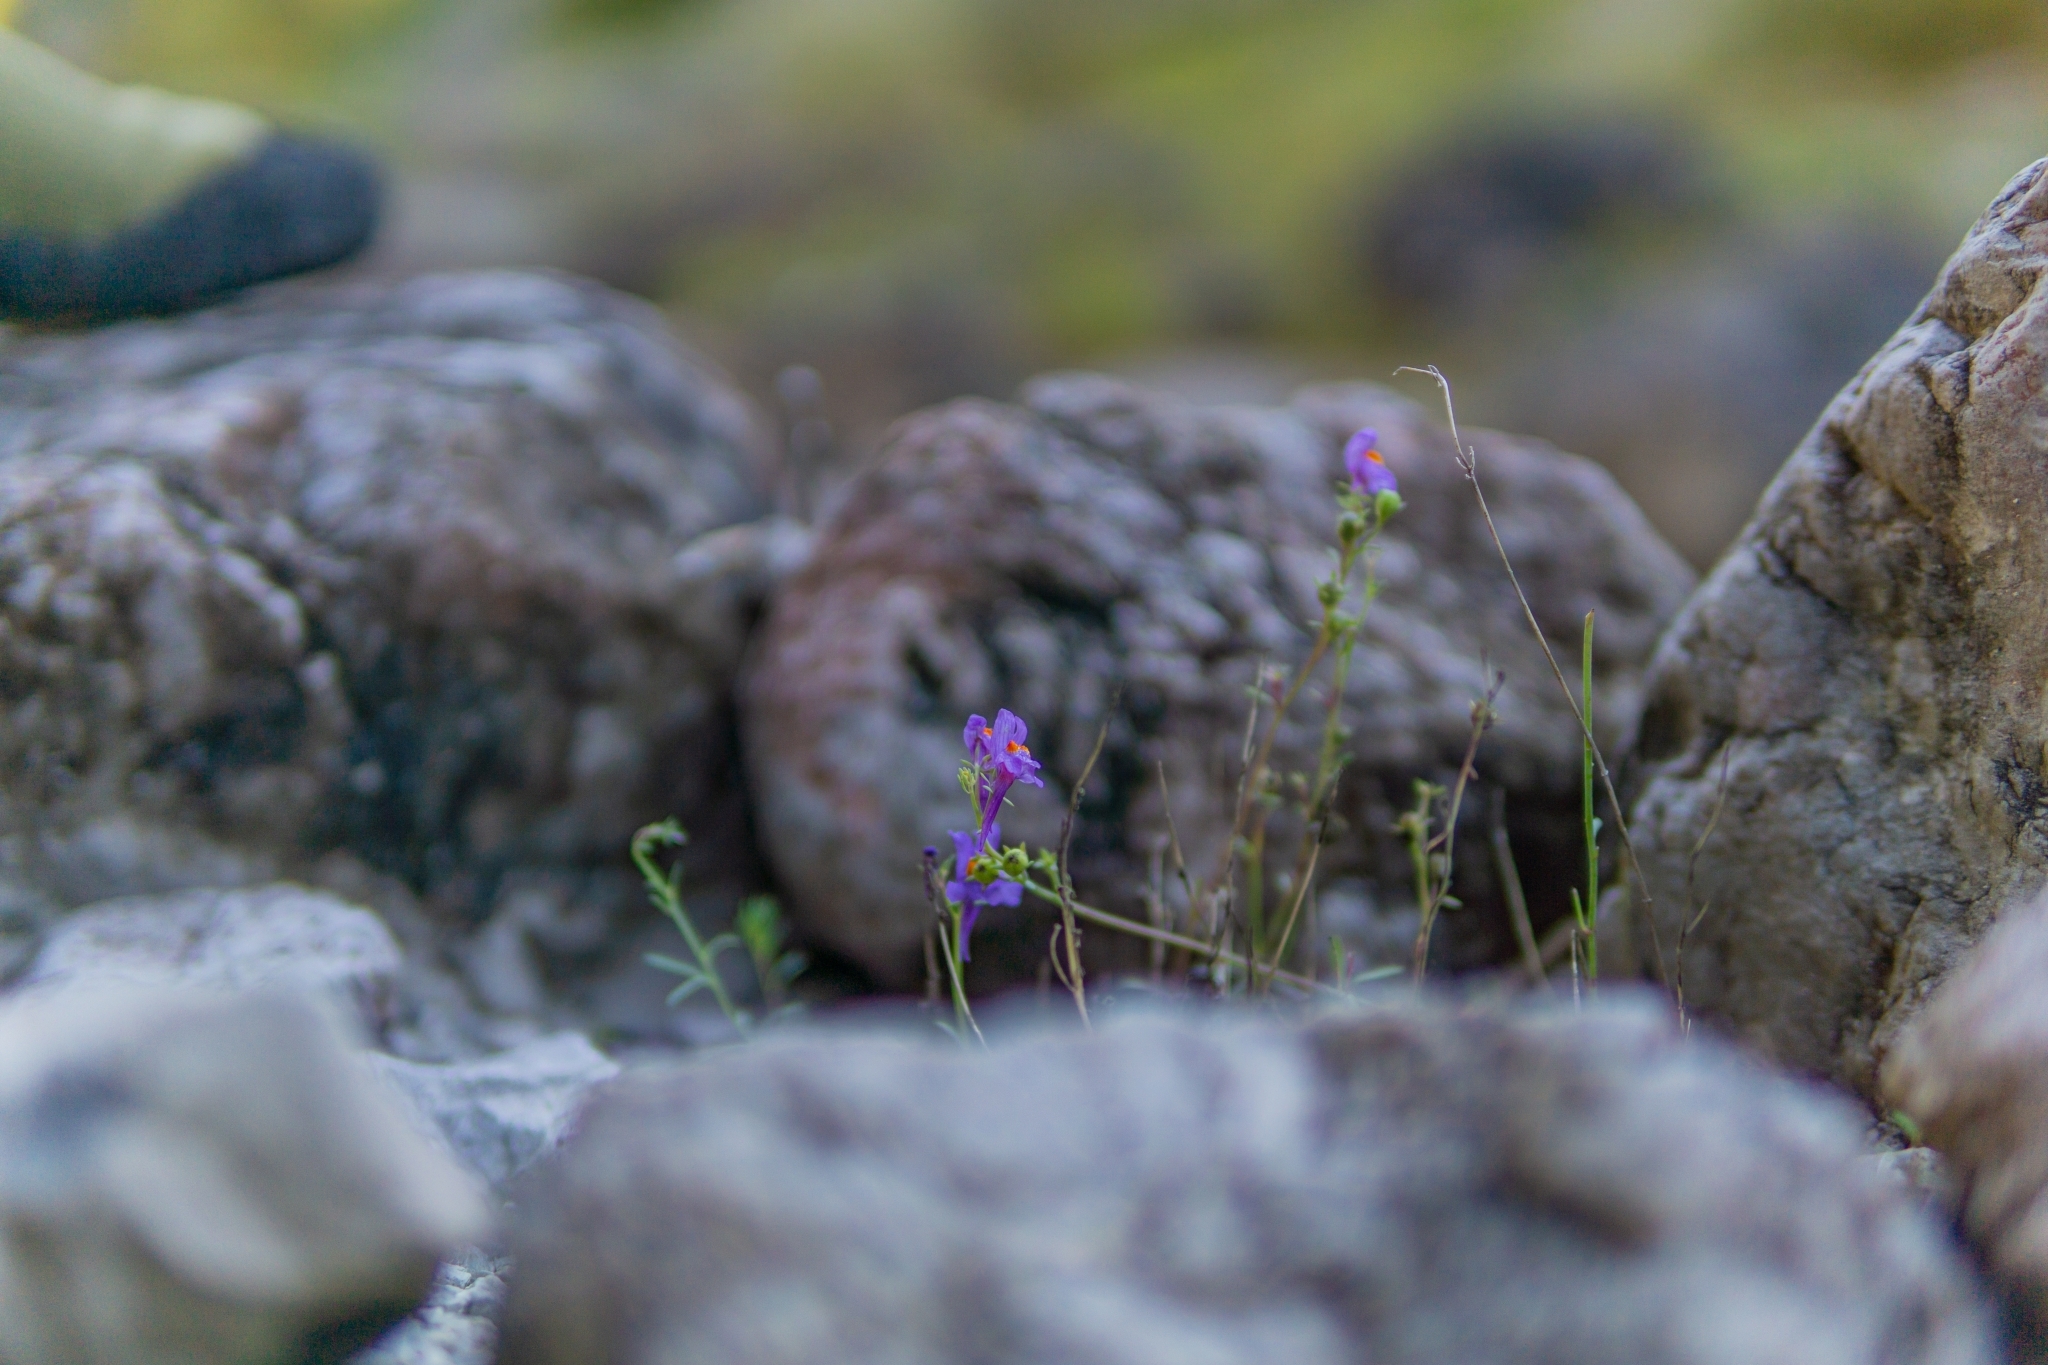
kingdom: Plantae
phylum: Tracheophyta
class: Magnoliopsida
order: Lamiales
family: Plantaginaceae
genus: Linaria
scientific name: Linaria alpina
